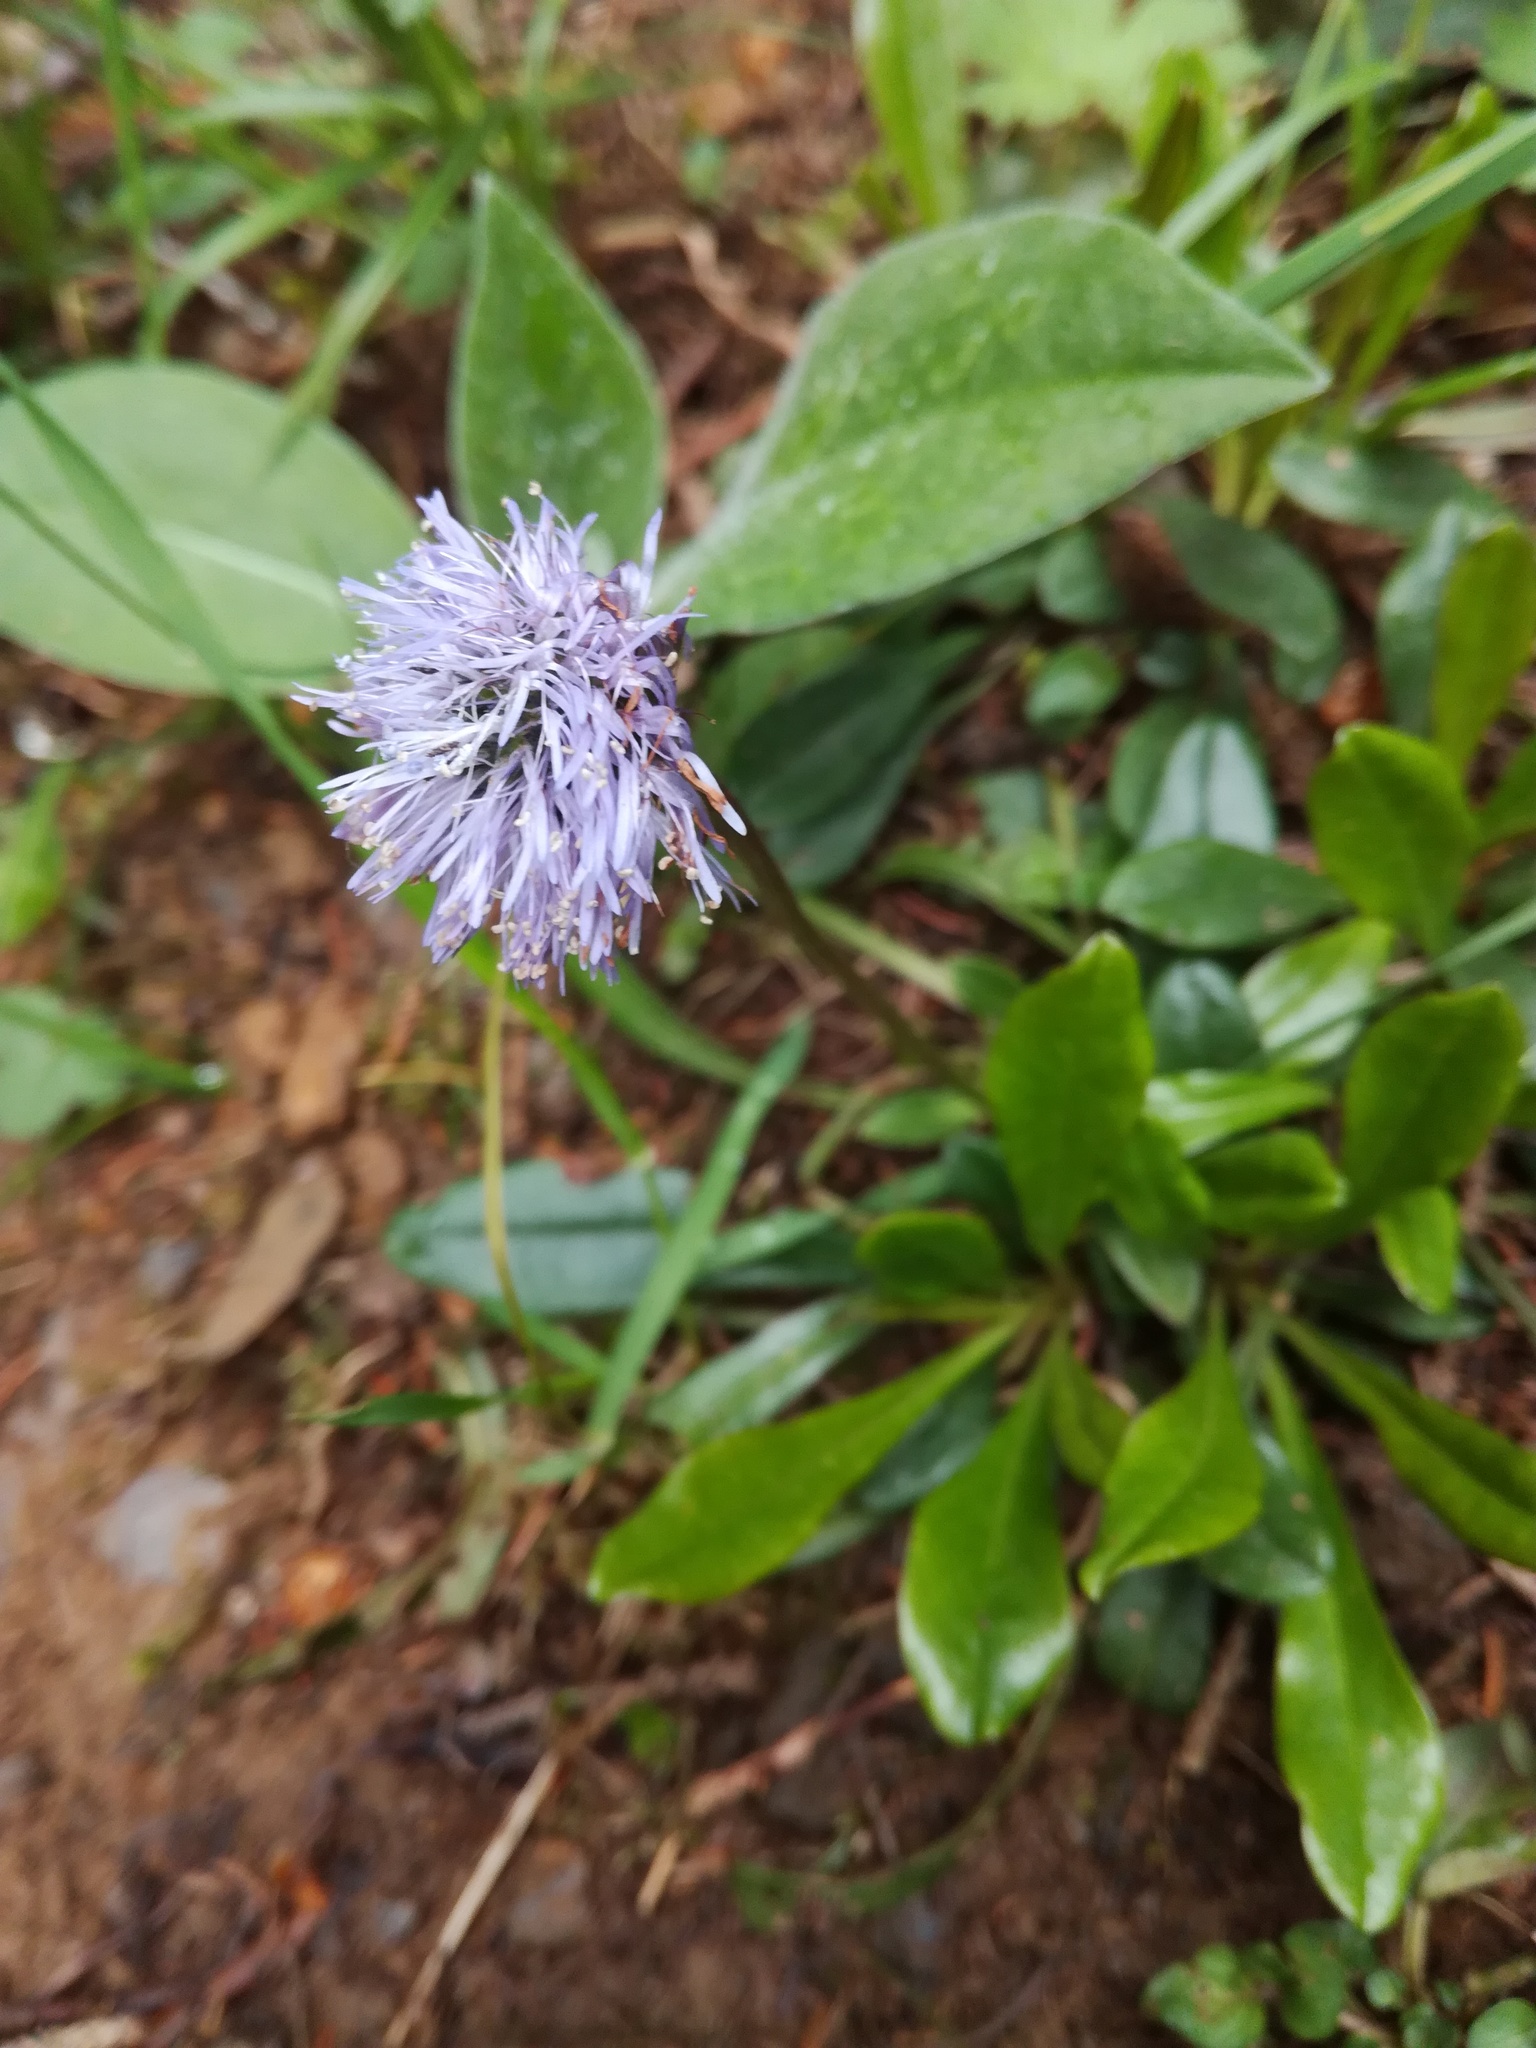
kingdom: Plantae
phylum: Tracheophyta
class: Magnoliopsida
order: Lamiales
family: Plantaginaceae
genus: Globularia
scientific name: Globularia nudicaulis
